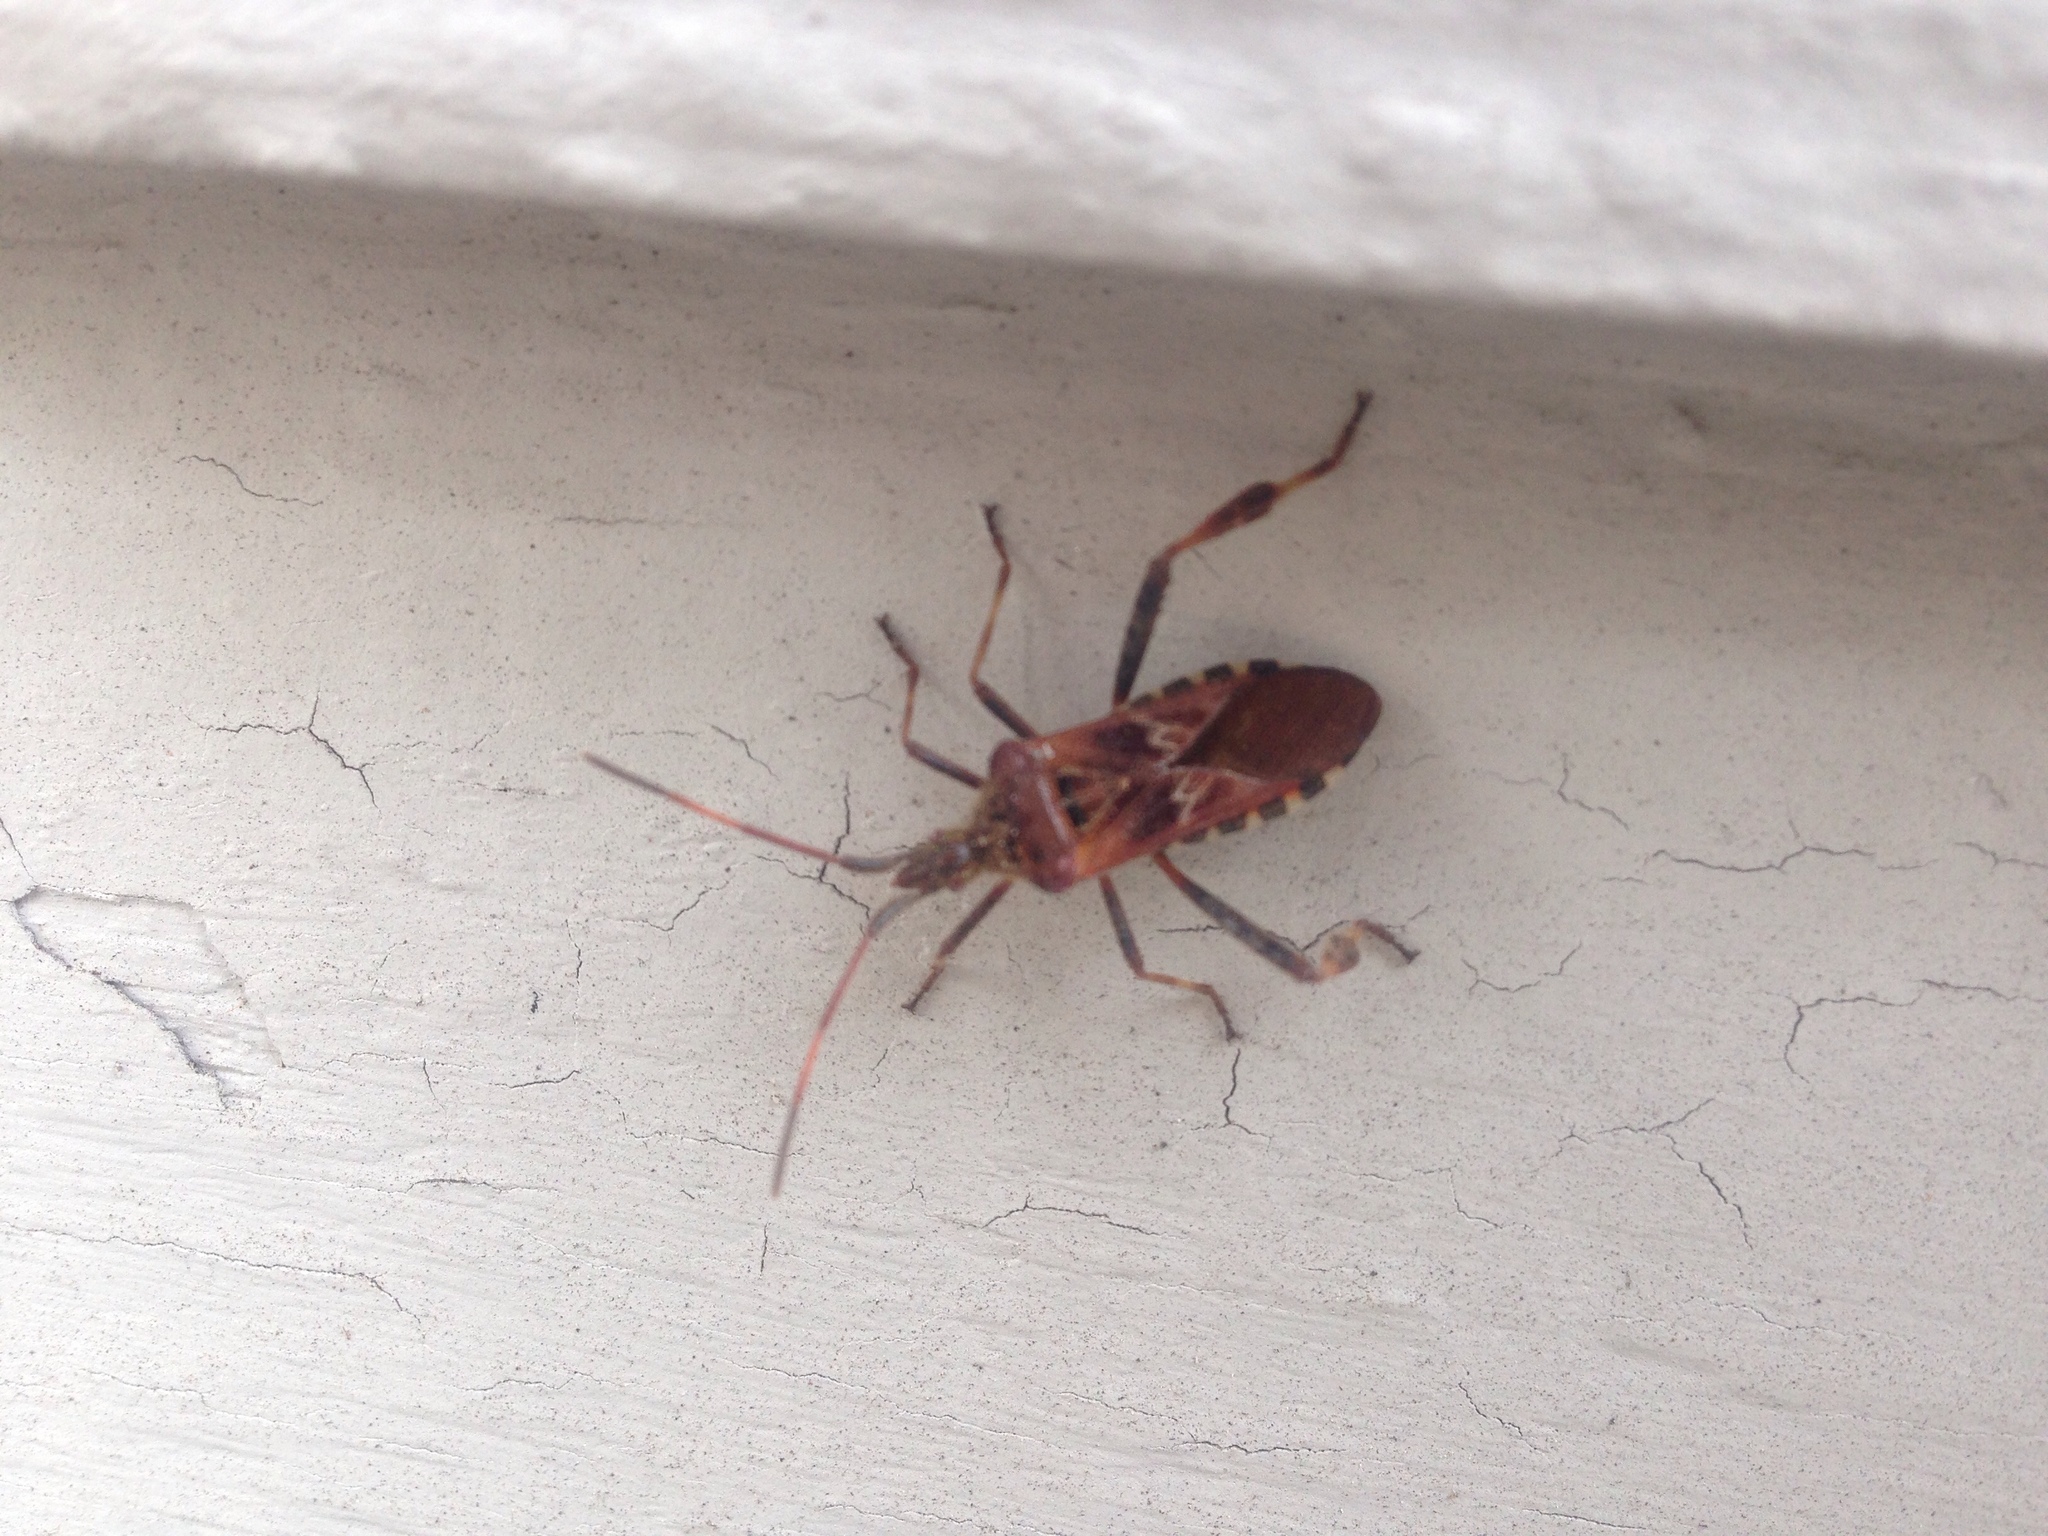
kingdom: Animalia
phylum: Arthropoda
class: Insecta
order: Hemiptera
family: Coreidae
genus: Leptoglossus
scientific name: Leptoglossus occidentalis
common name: Western conifer-seed bug
